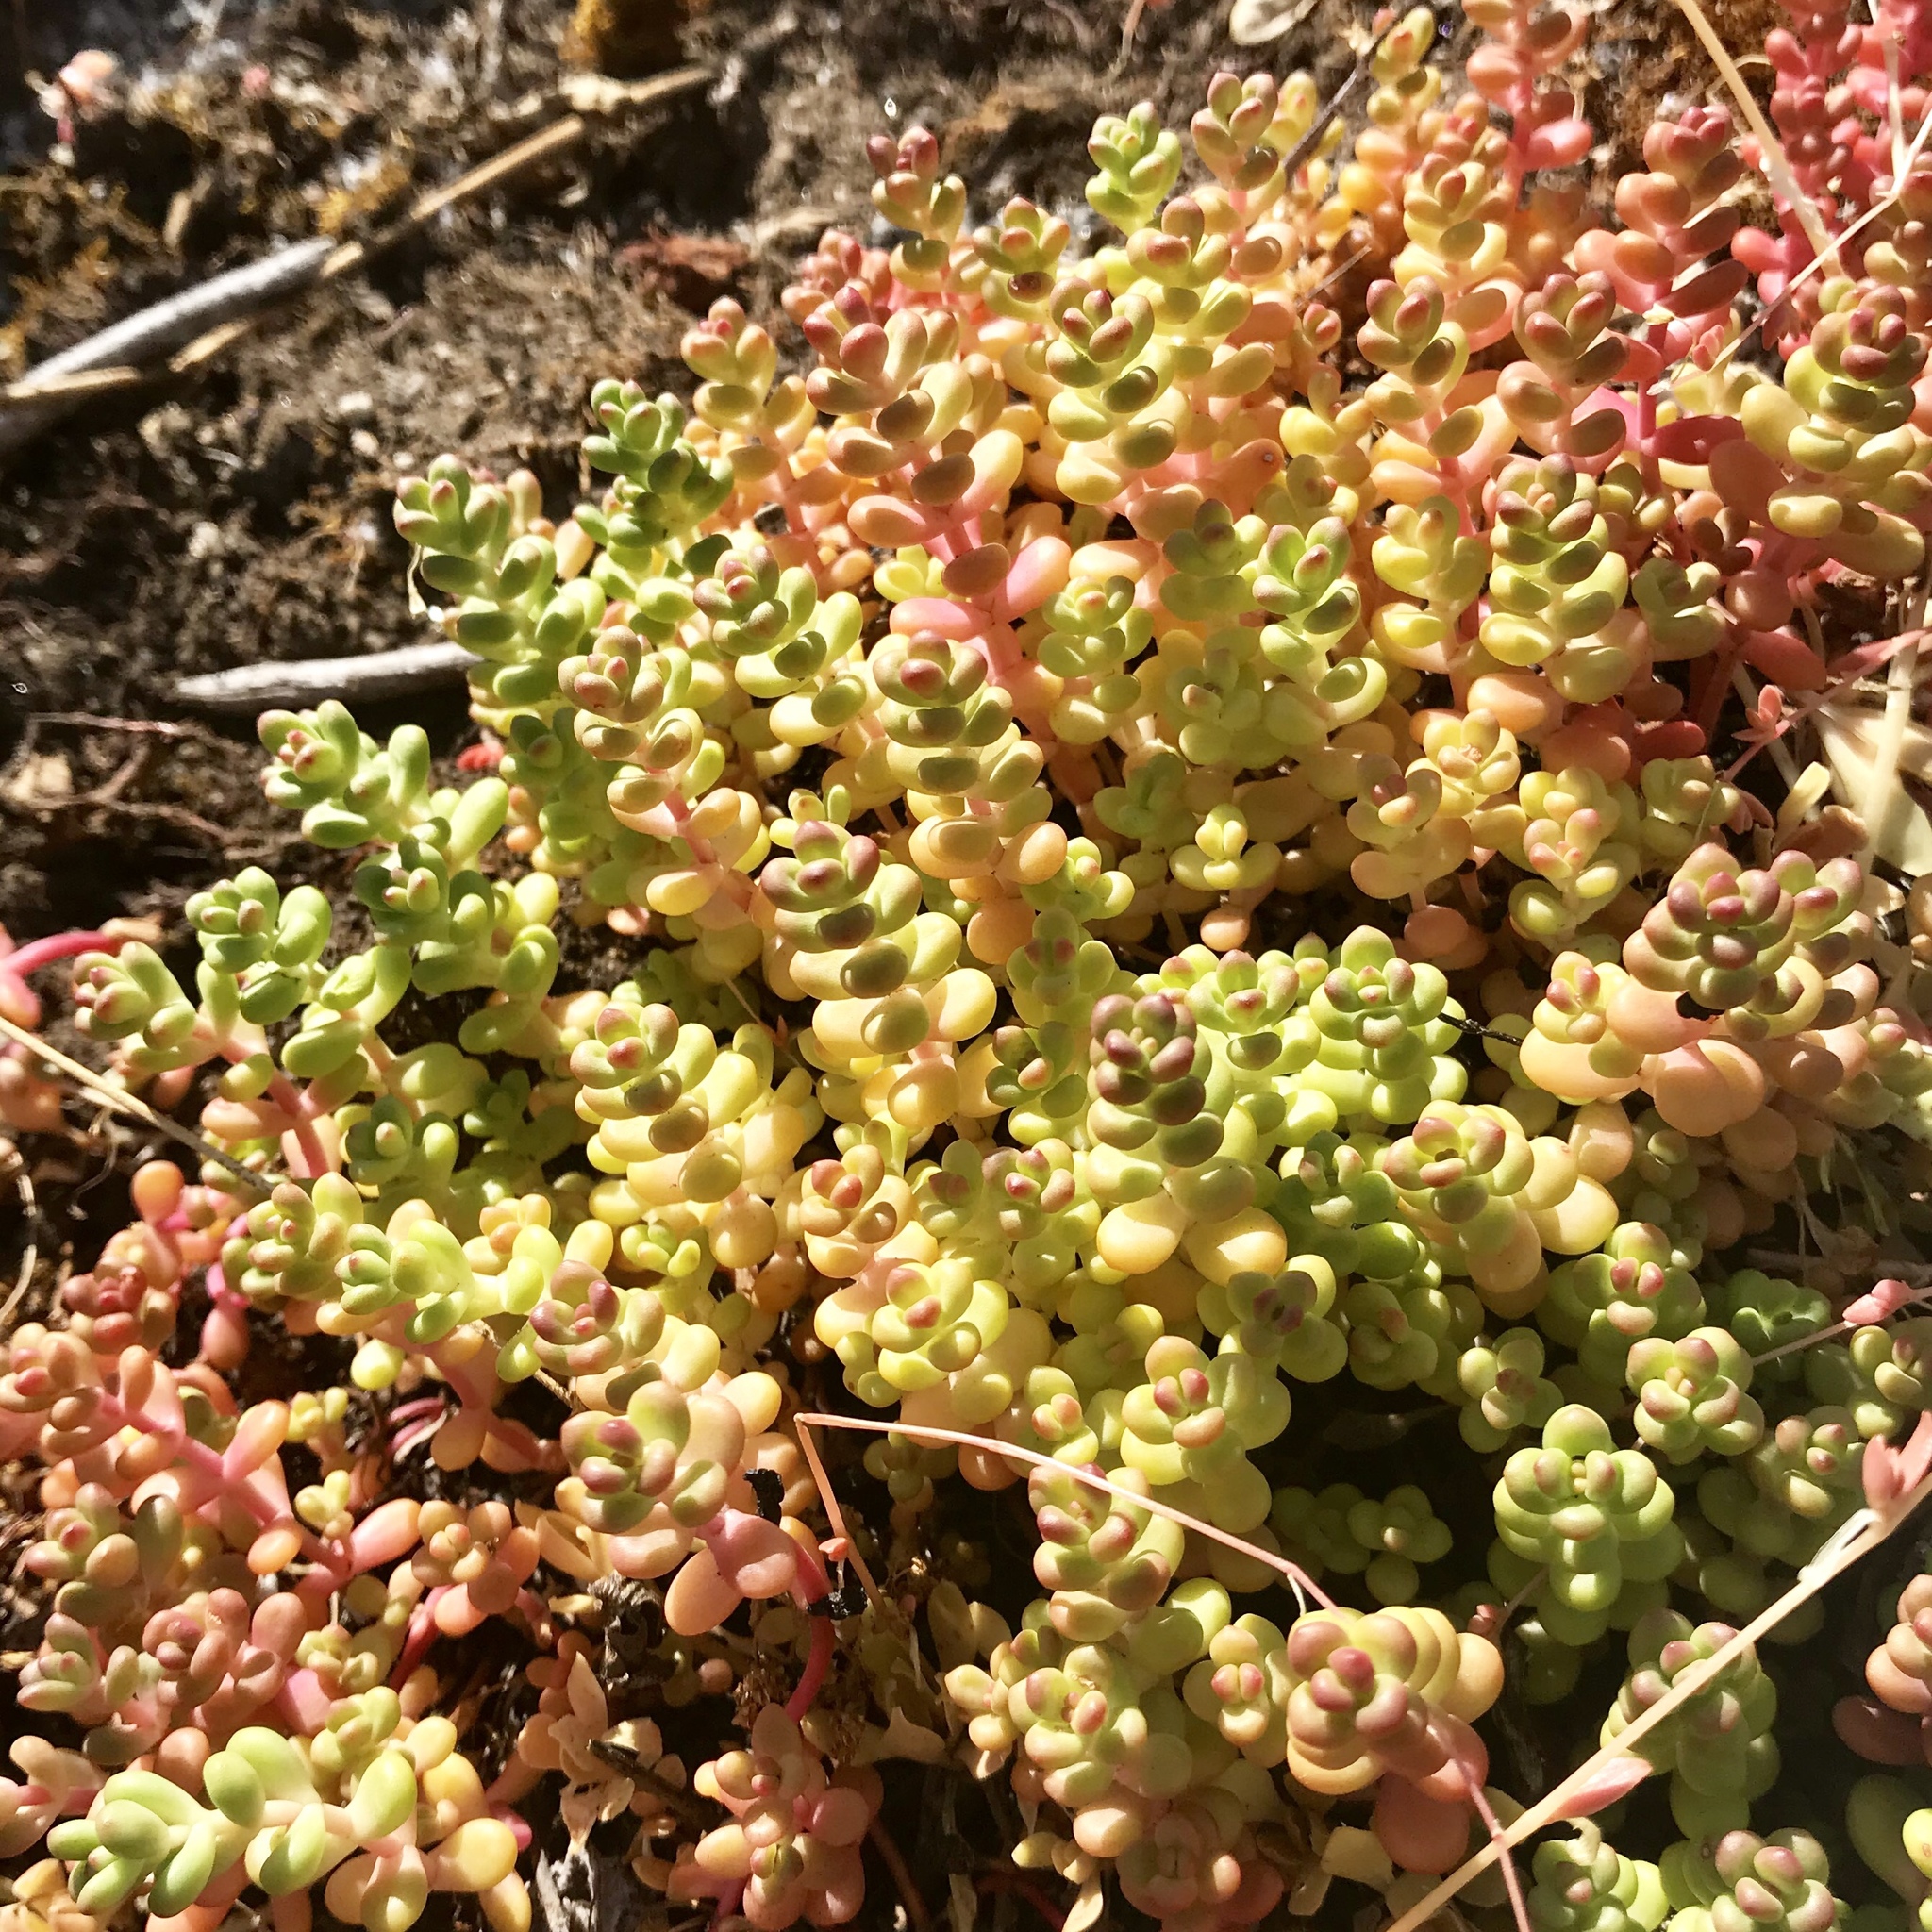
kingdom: Plantae
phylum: Tracheophyta
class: Magnoliopsida
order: Saxifragales
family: Crassulaceae
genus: Sedum
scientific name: Sedum divergens
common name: Cascade stonecrop
